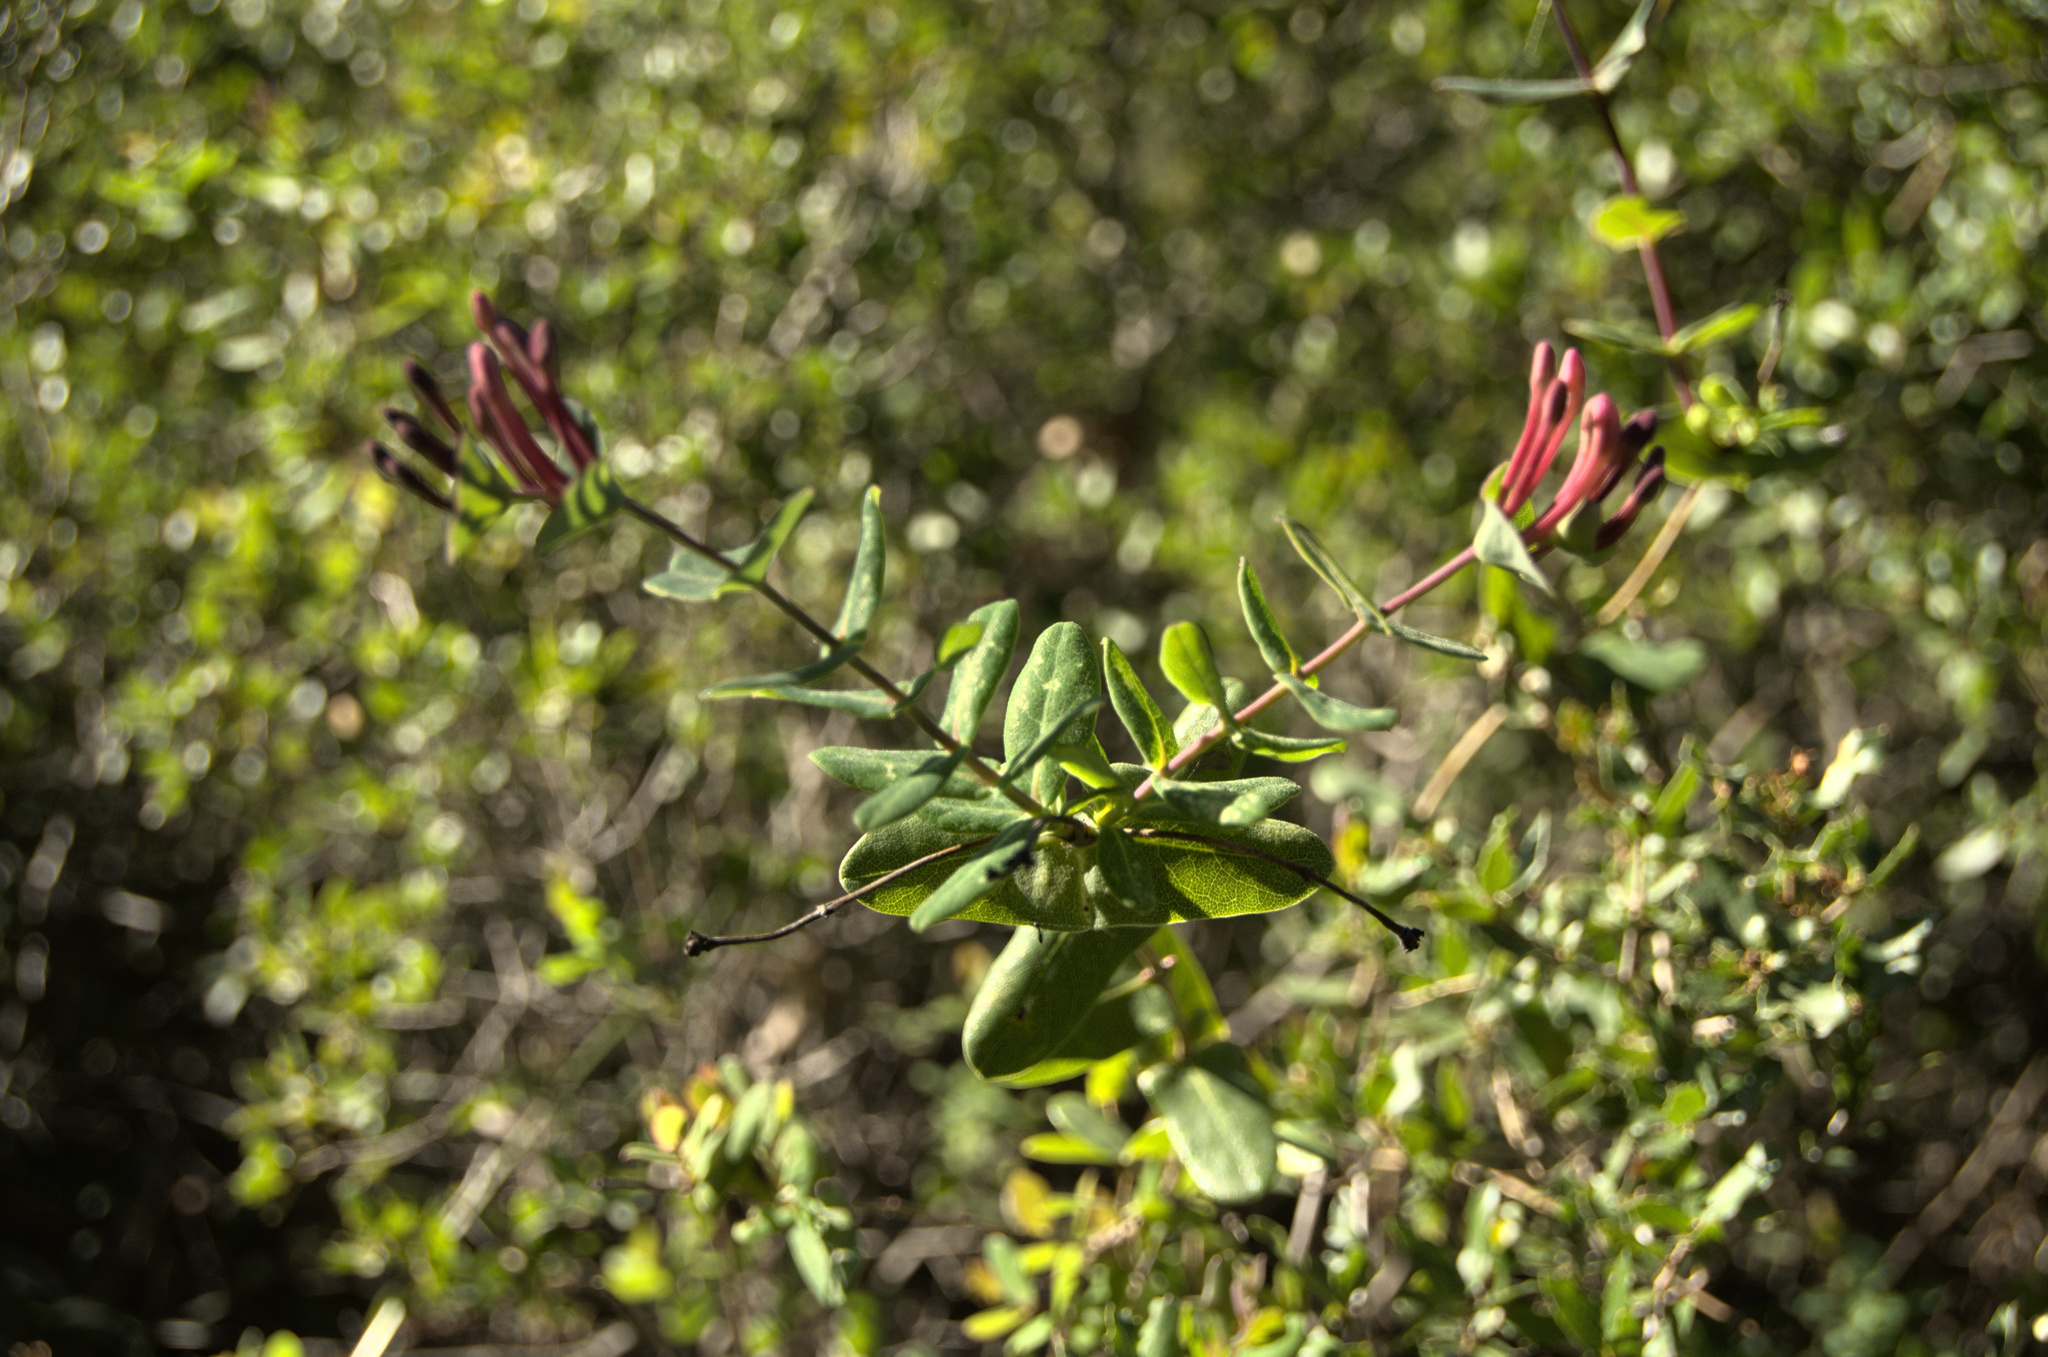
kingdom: Plantae
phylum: Tracheophyta
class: Magnoliopsida
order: Dipsacales
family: Caprifoliaceae
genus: Lonicera
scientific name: Lonicera implexa
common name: Minorca honeysuckle
